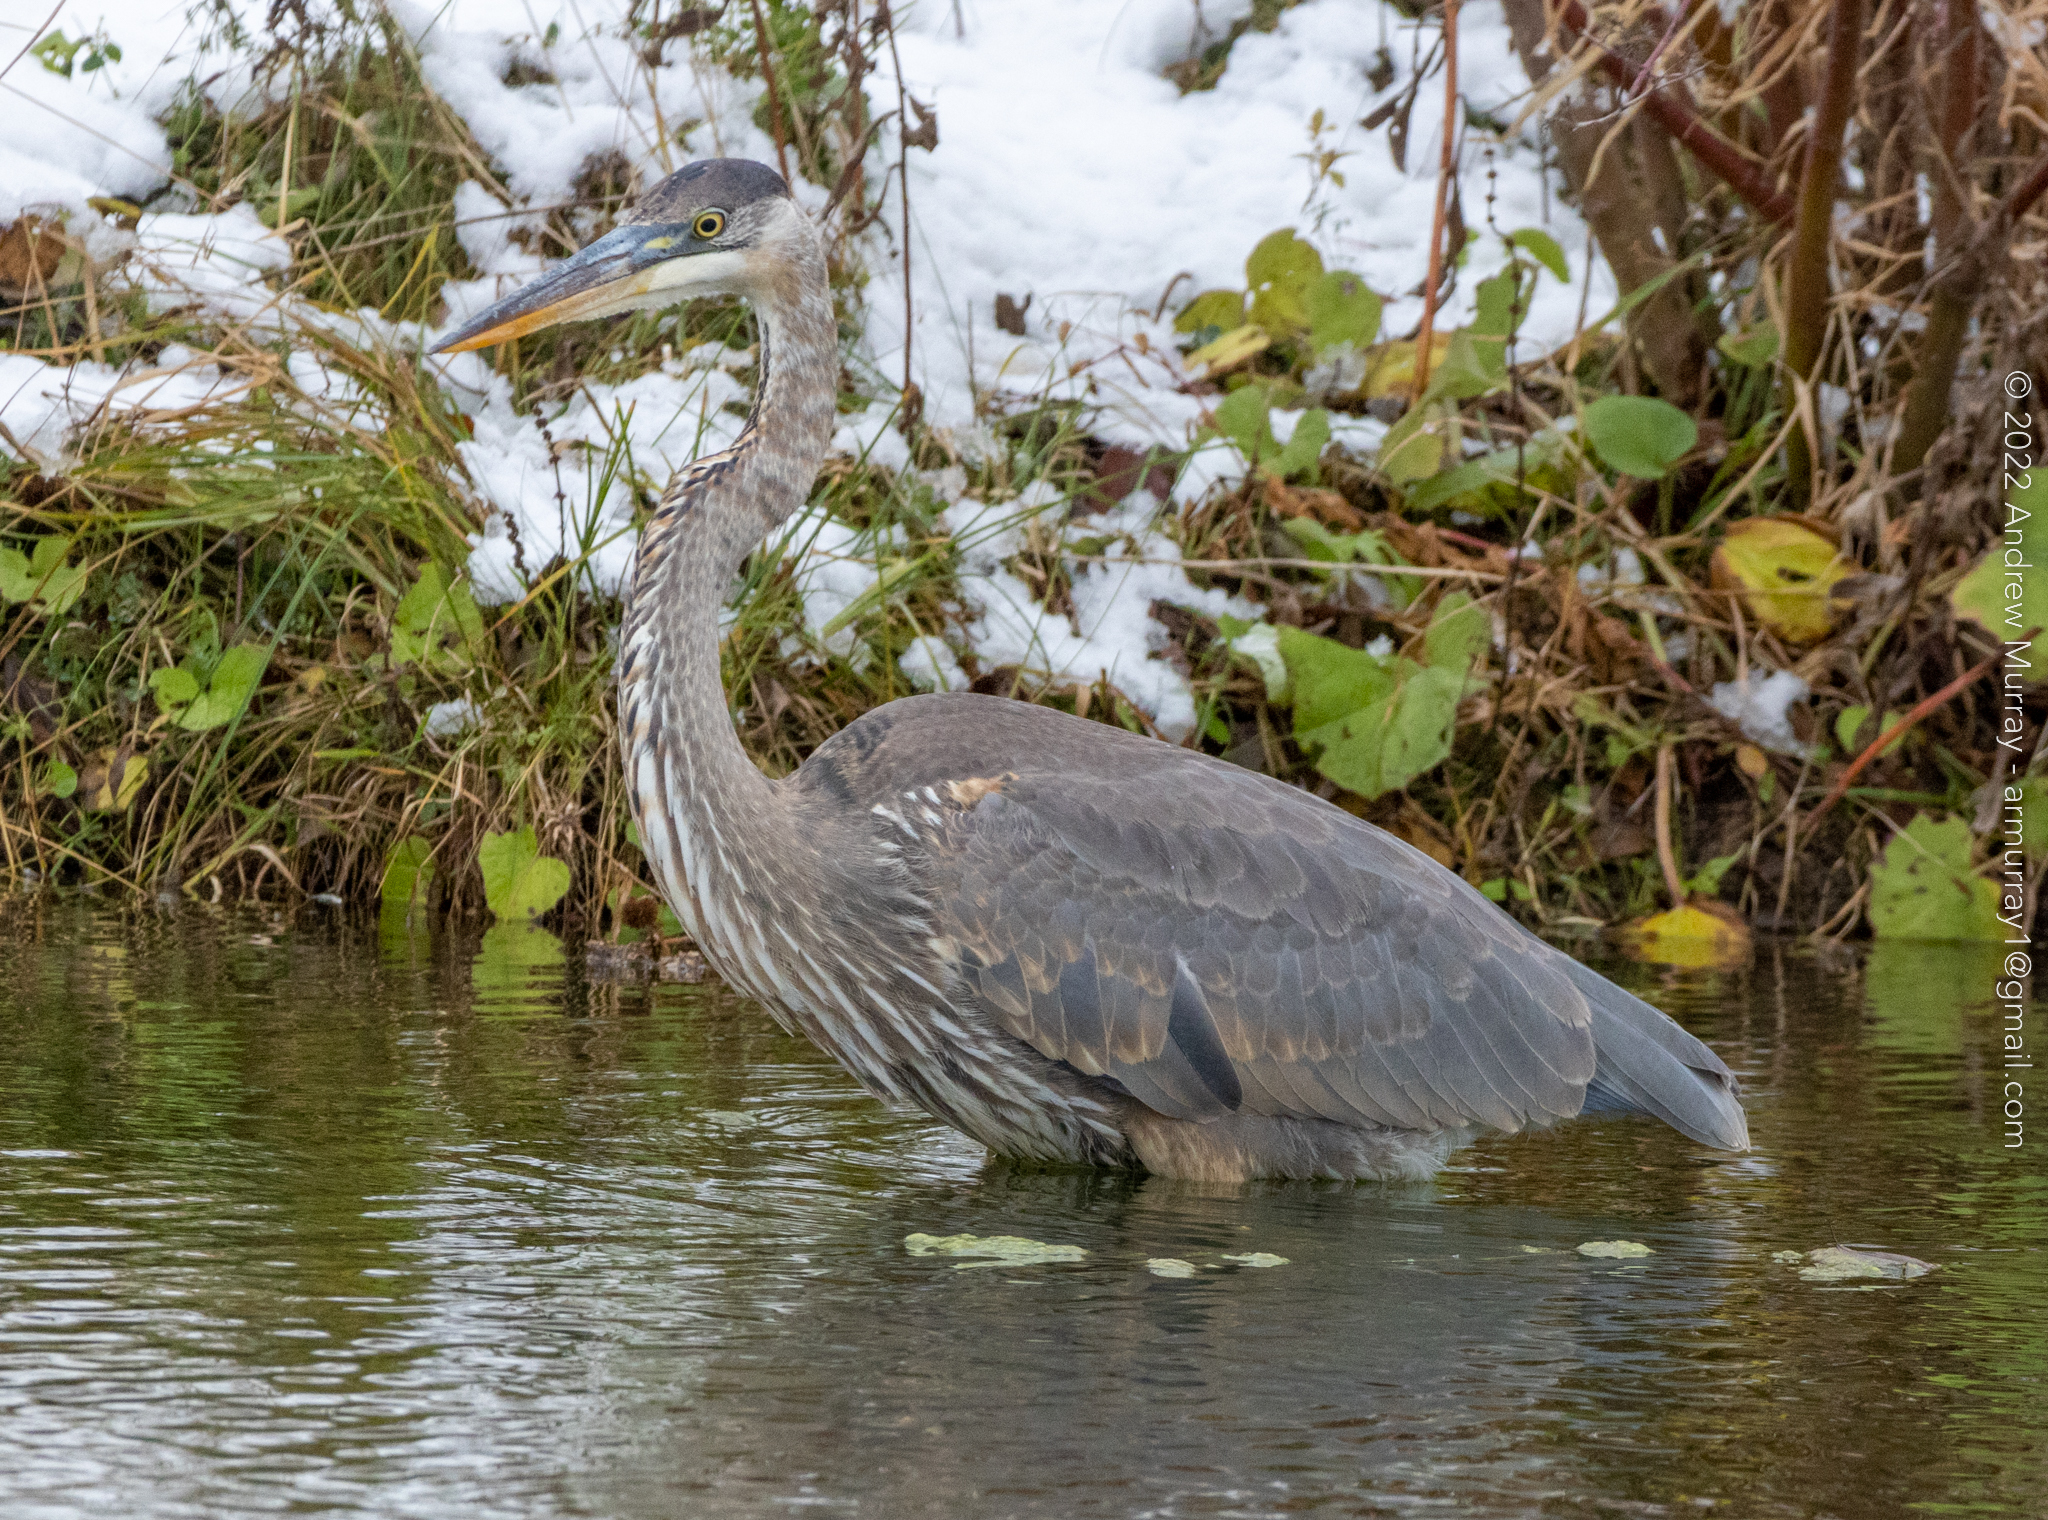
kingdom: Animalia
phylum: Chordata
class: Aves
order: Pelecaniformes
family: Ardeidae
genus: Ardea
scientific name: Ardea herodias
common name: Great blue heron
